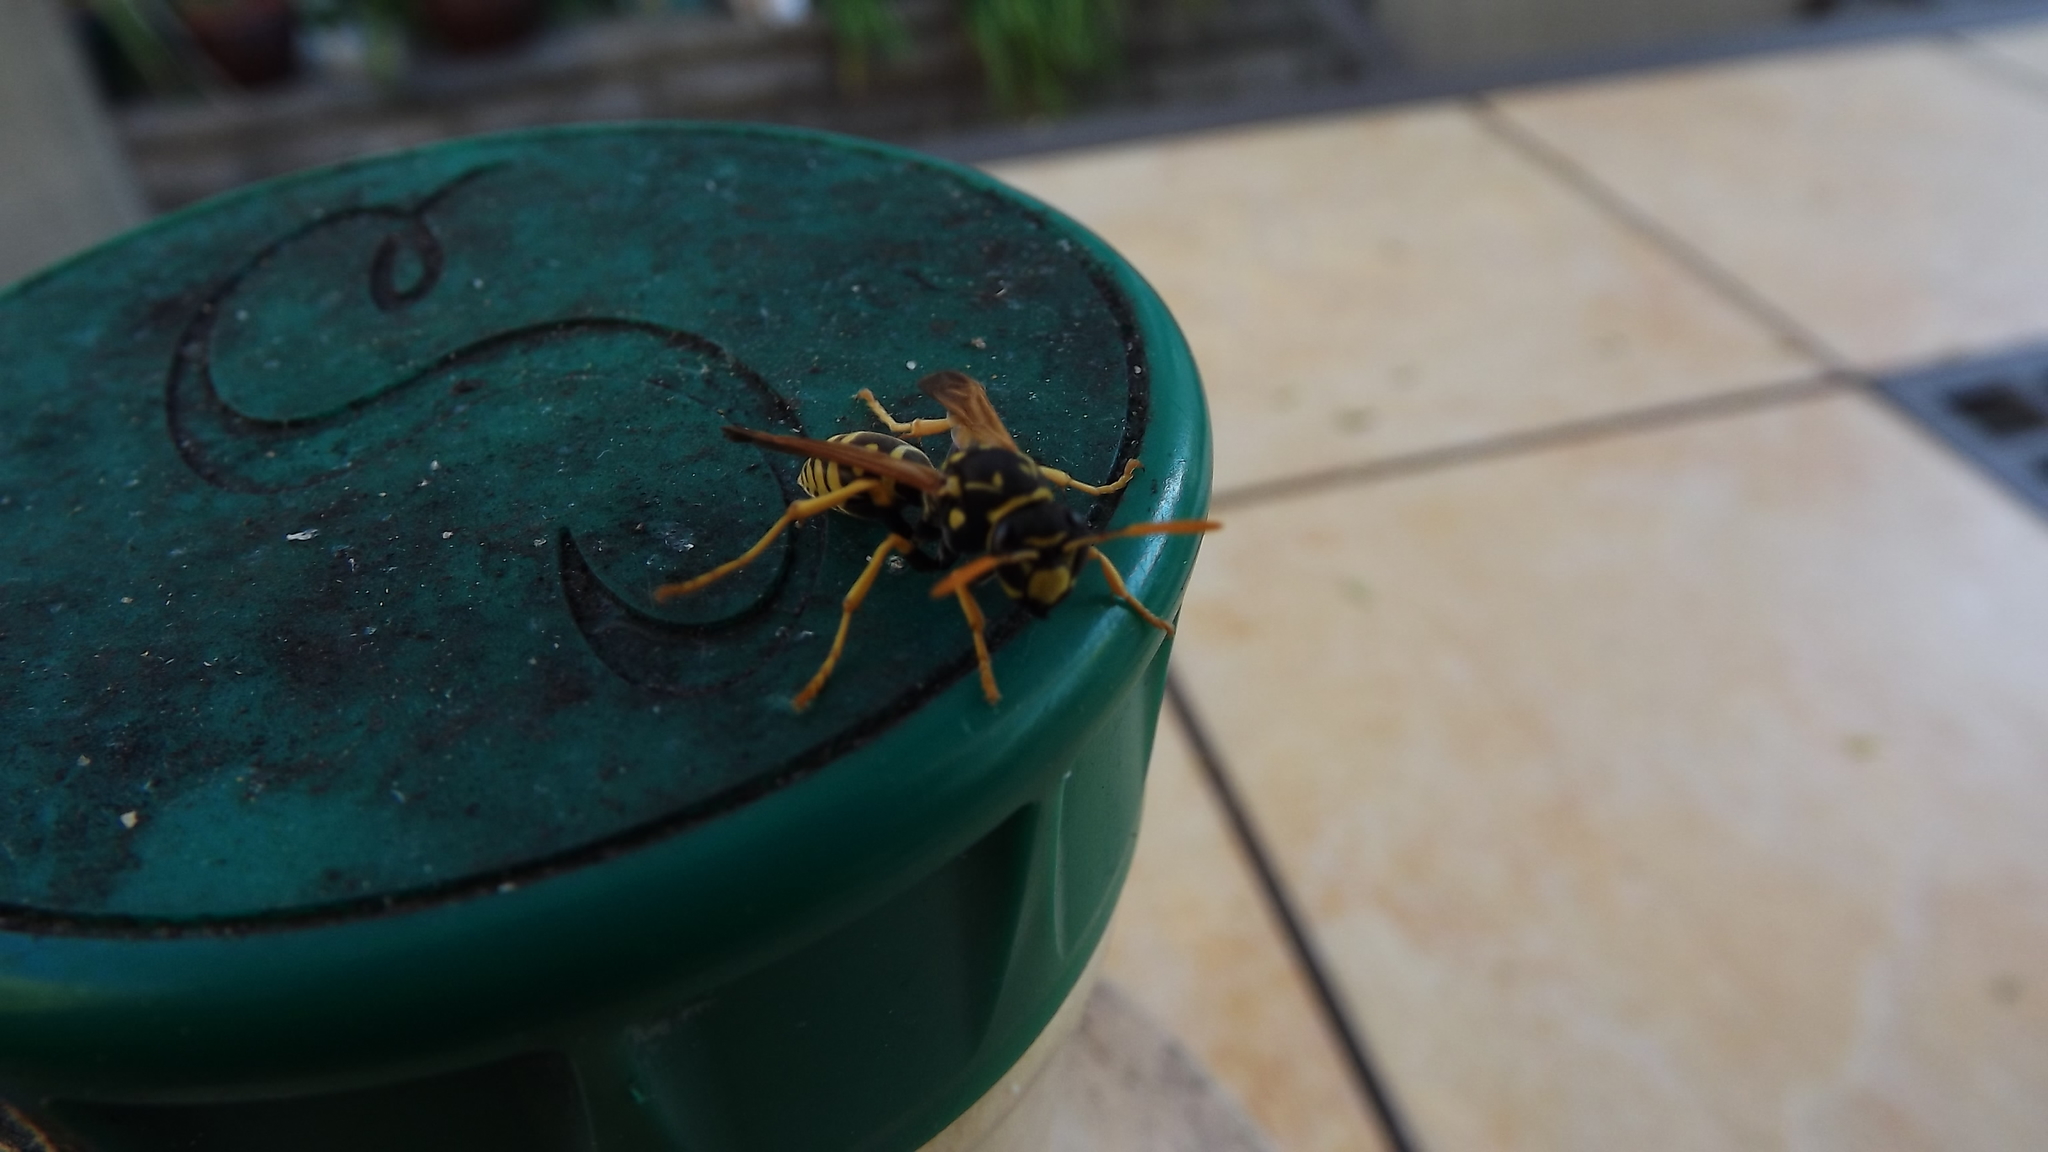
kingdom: Animalia
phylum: Arthropoda
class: Insecta
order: Hymenoptera
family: Eumenidae
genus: Polistes
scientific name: Polistes dominula
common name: Paper wasp
